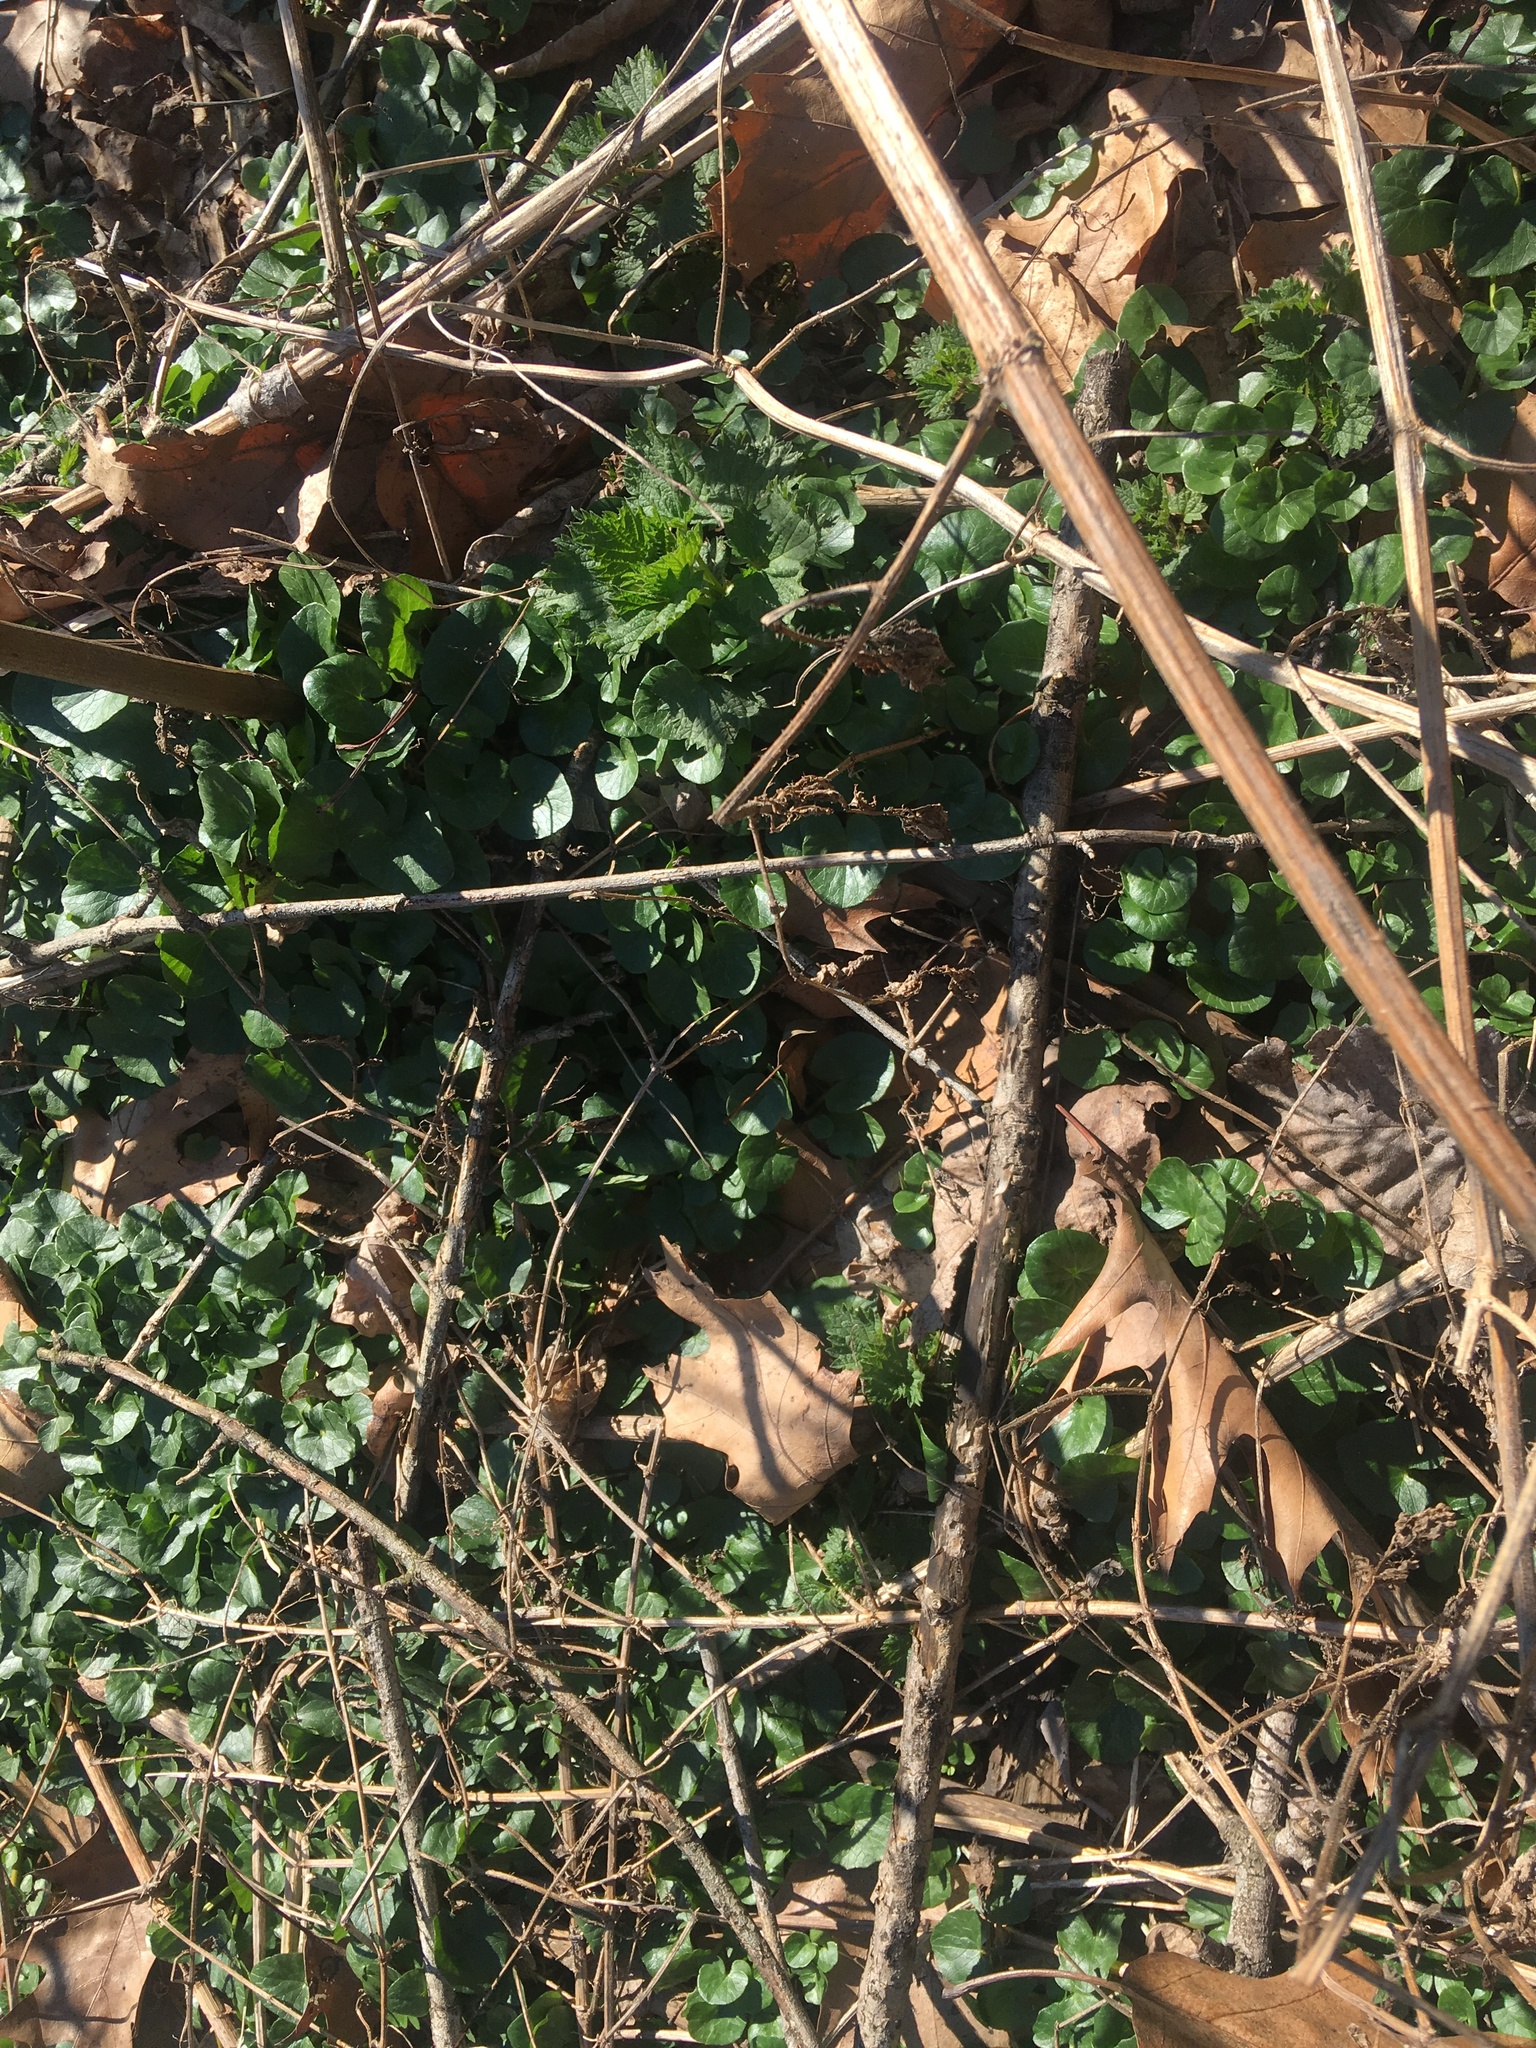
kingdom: Plantae
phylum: Tracheophyta
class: Magnoliopsida
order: Ranunculales
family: Ranunculaceae
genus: Ficaria
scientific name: Ficaria verna
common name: Lesser celandine
